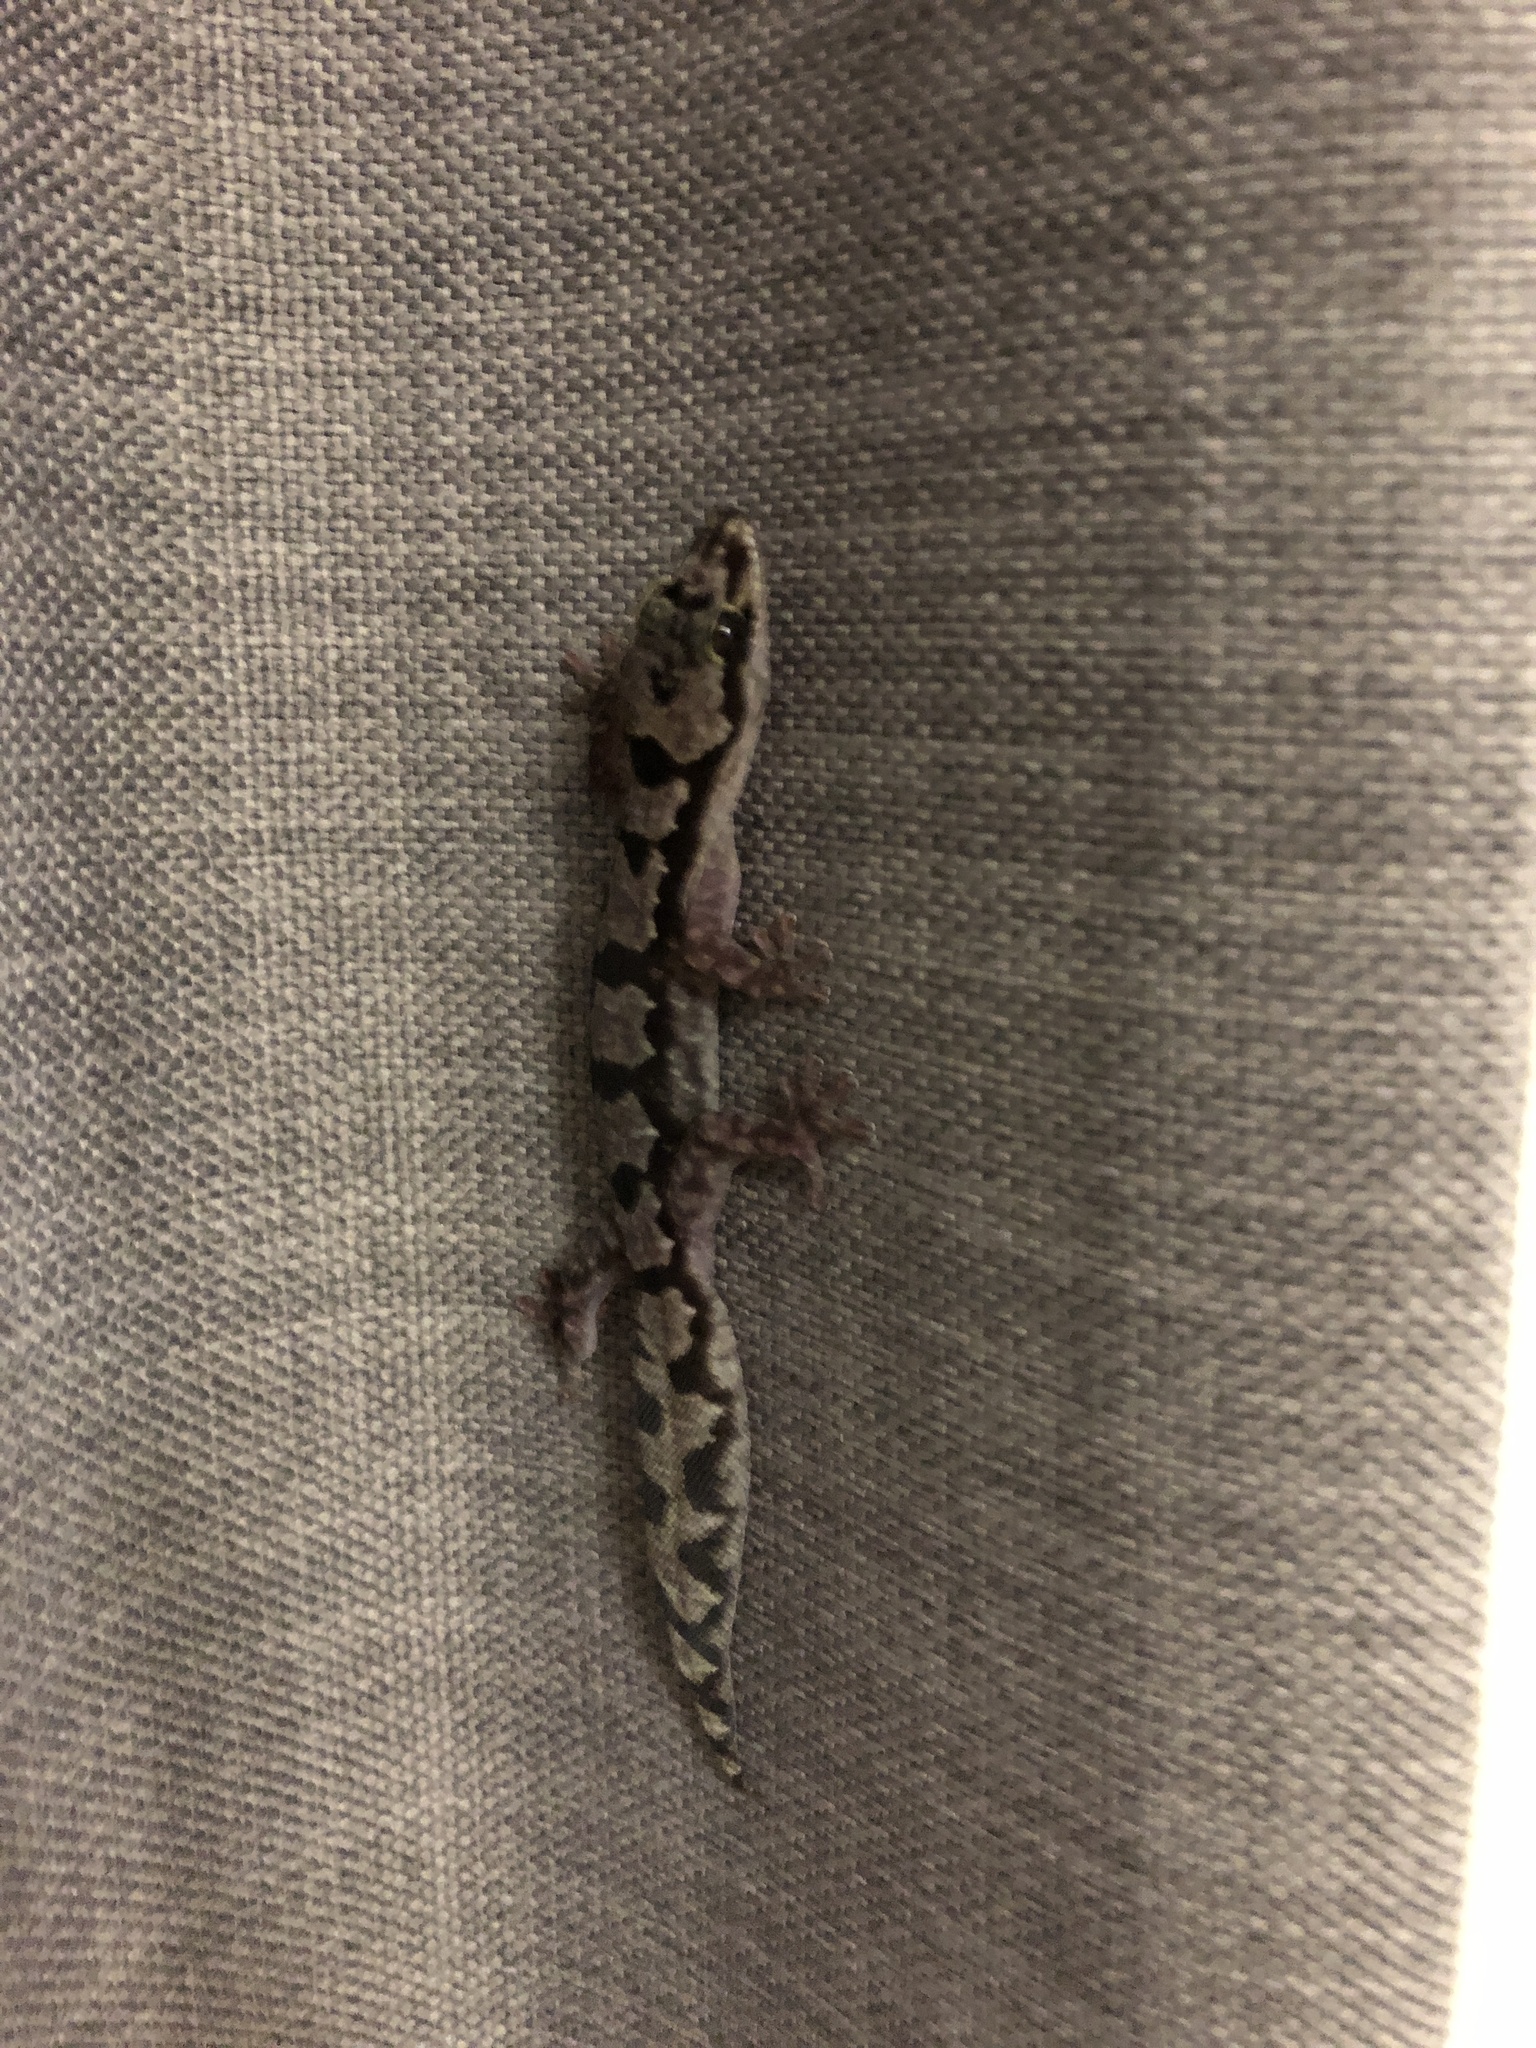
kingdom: Animalia
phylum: Chordata
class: Squamata
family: Diplodactylidae
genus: Nebulifera
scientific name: Nebulifera robusta
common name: Robust gecko
